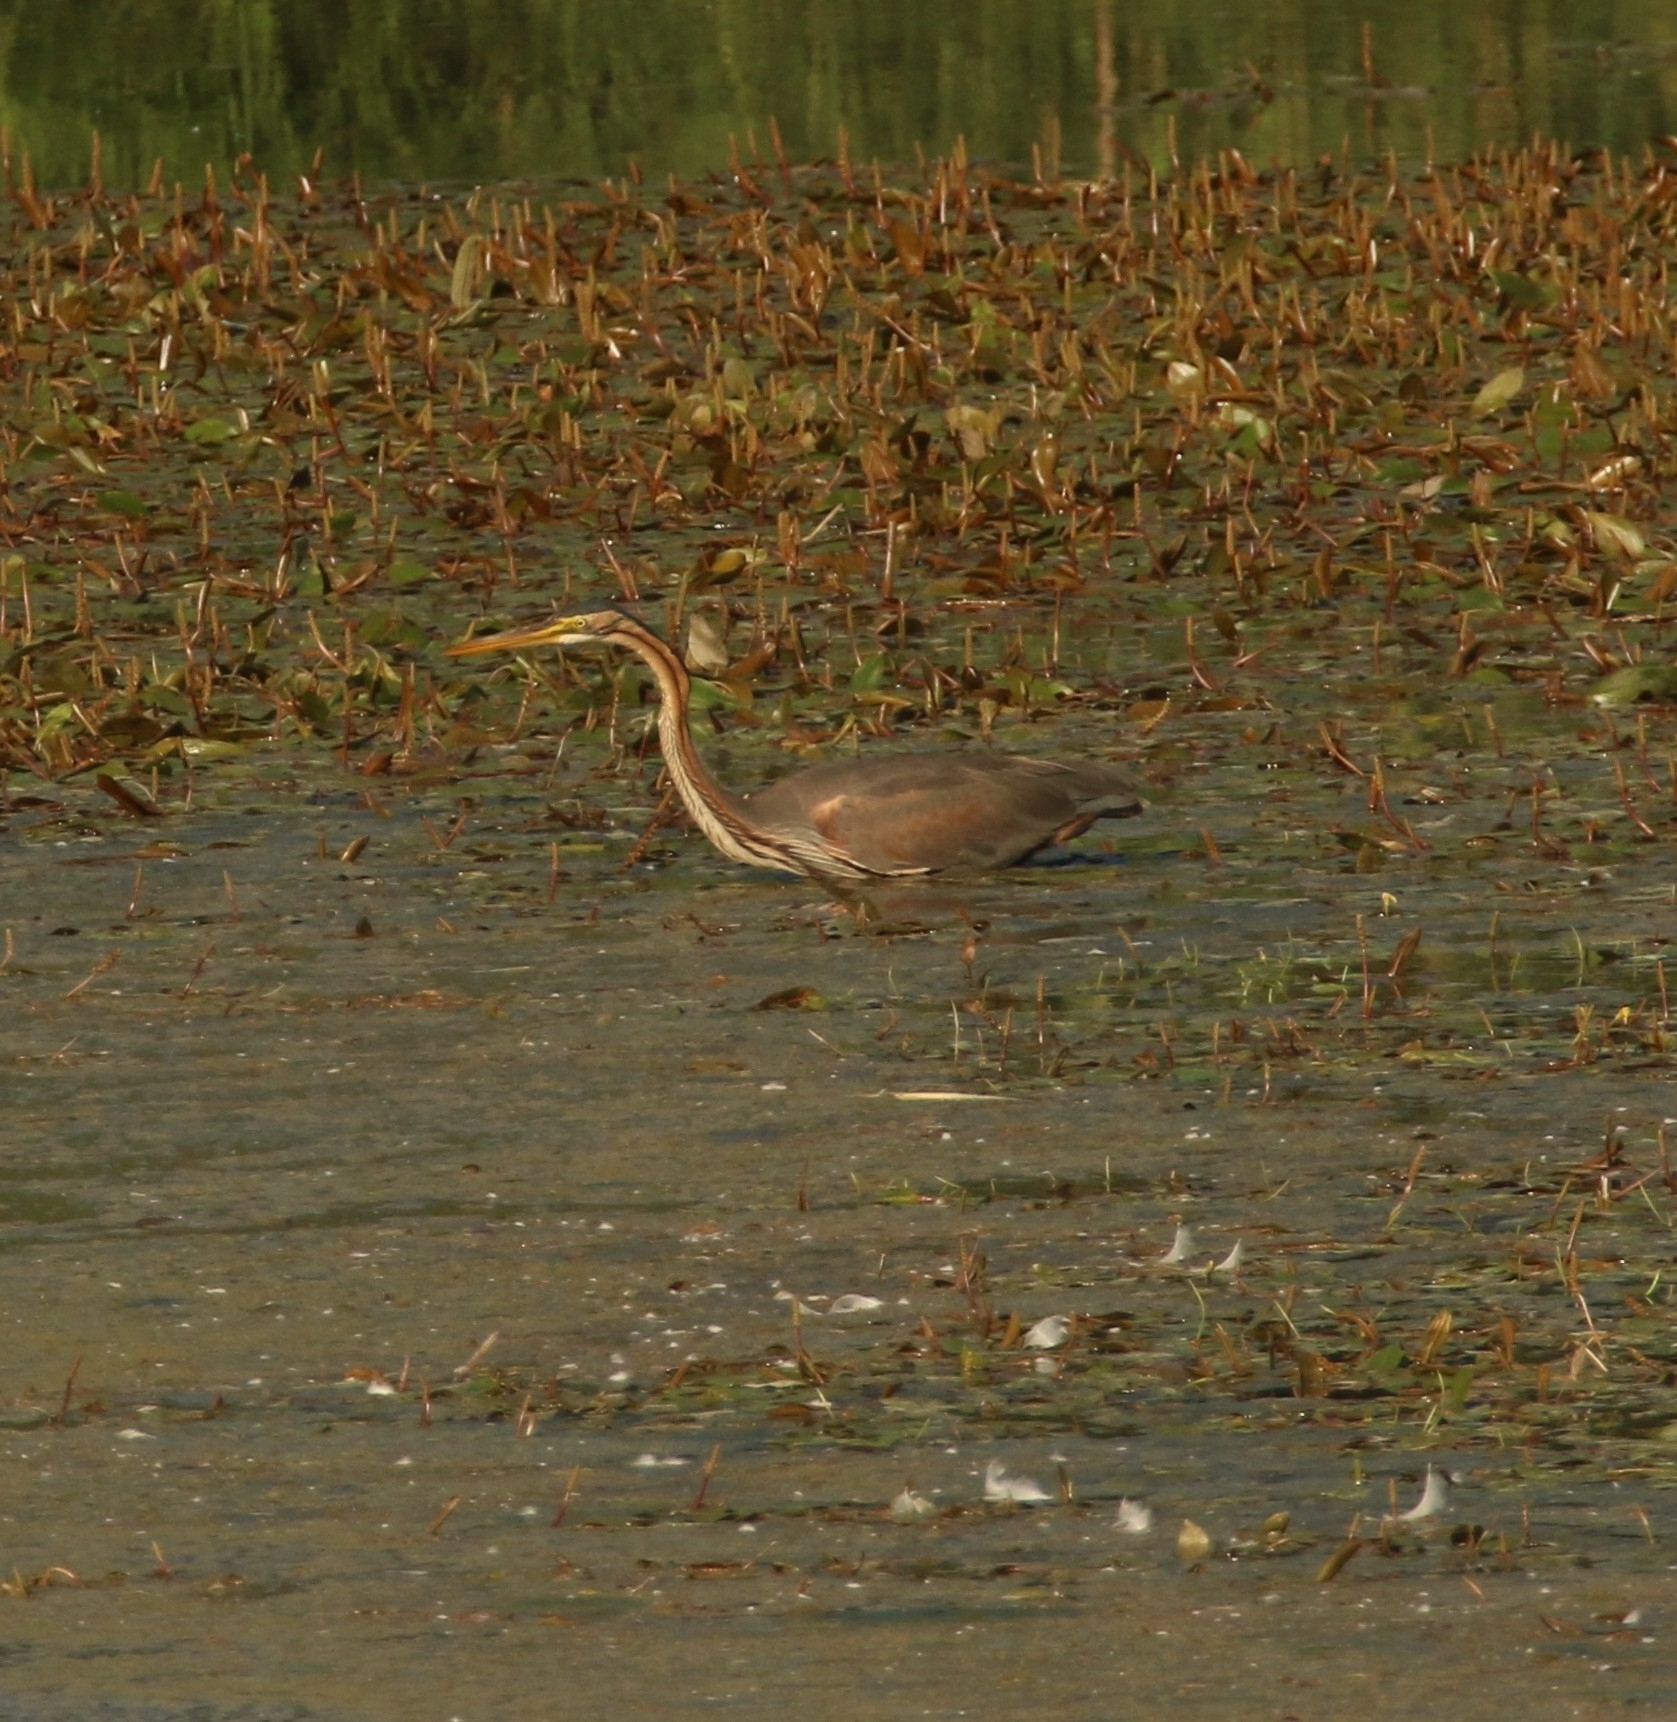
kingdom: Animalia
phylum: Chordata
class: Aves
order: Pelecaniformes
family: Ardeidae
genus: Ardea
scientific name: Ardea purpurea
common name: Purple heron
